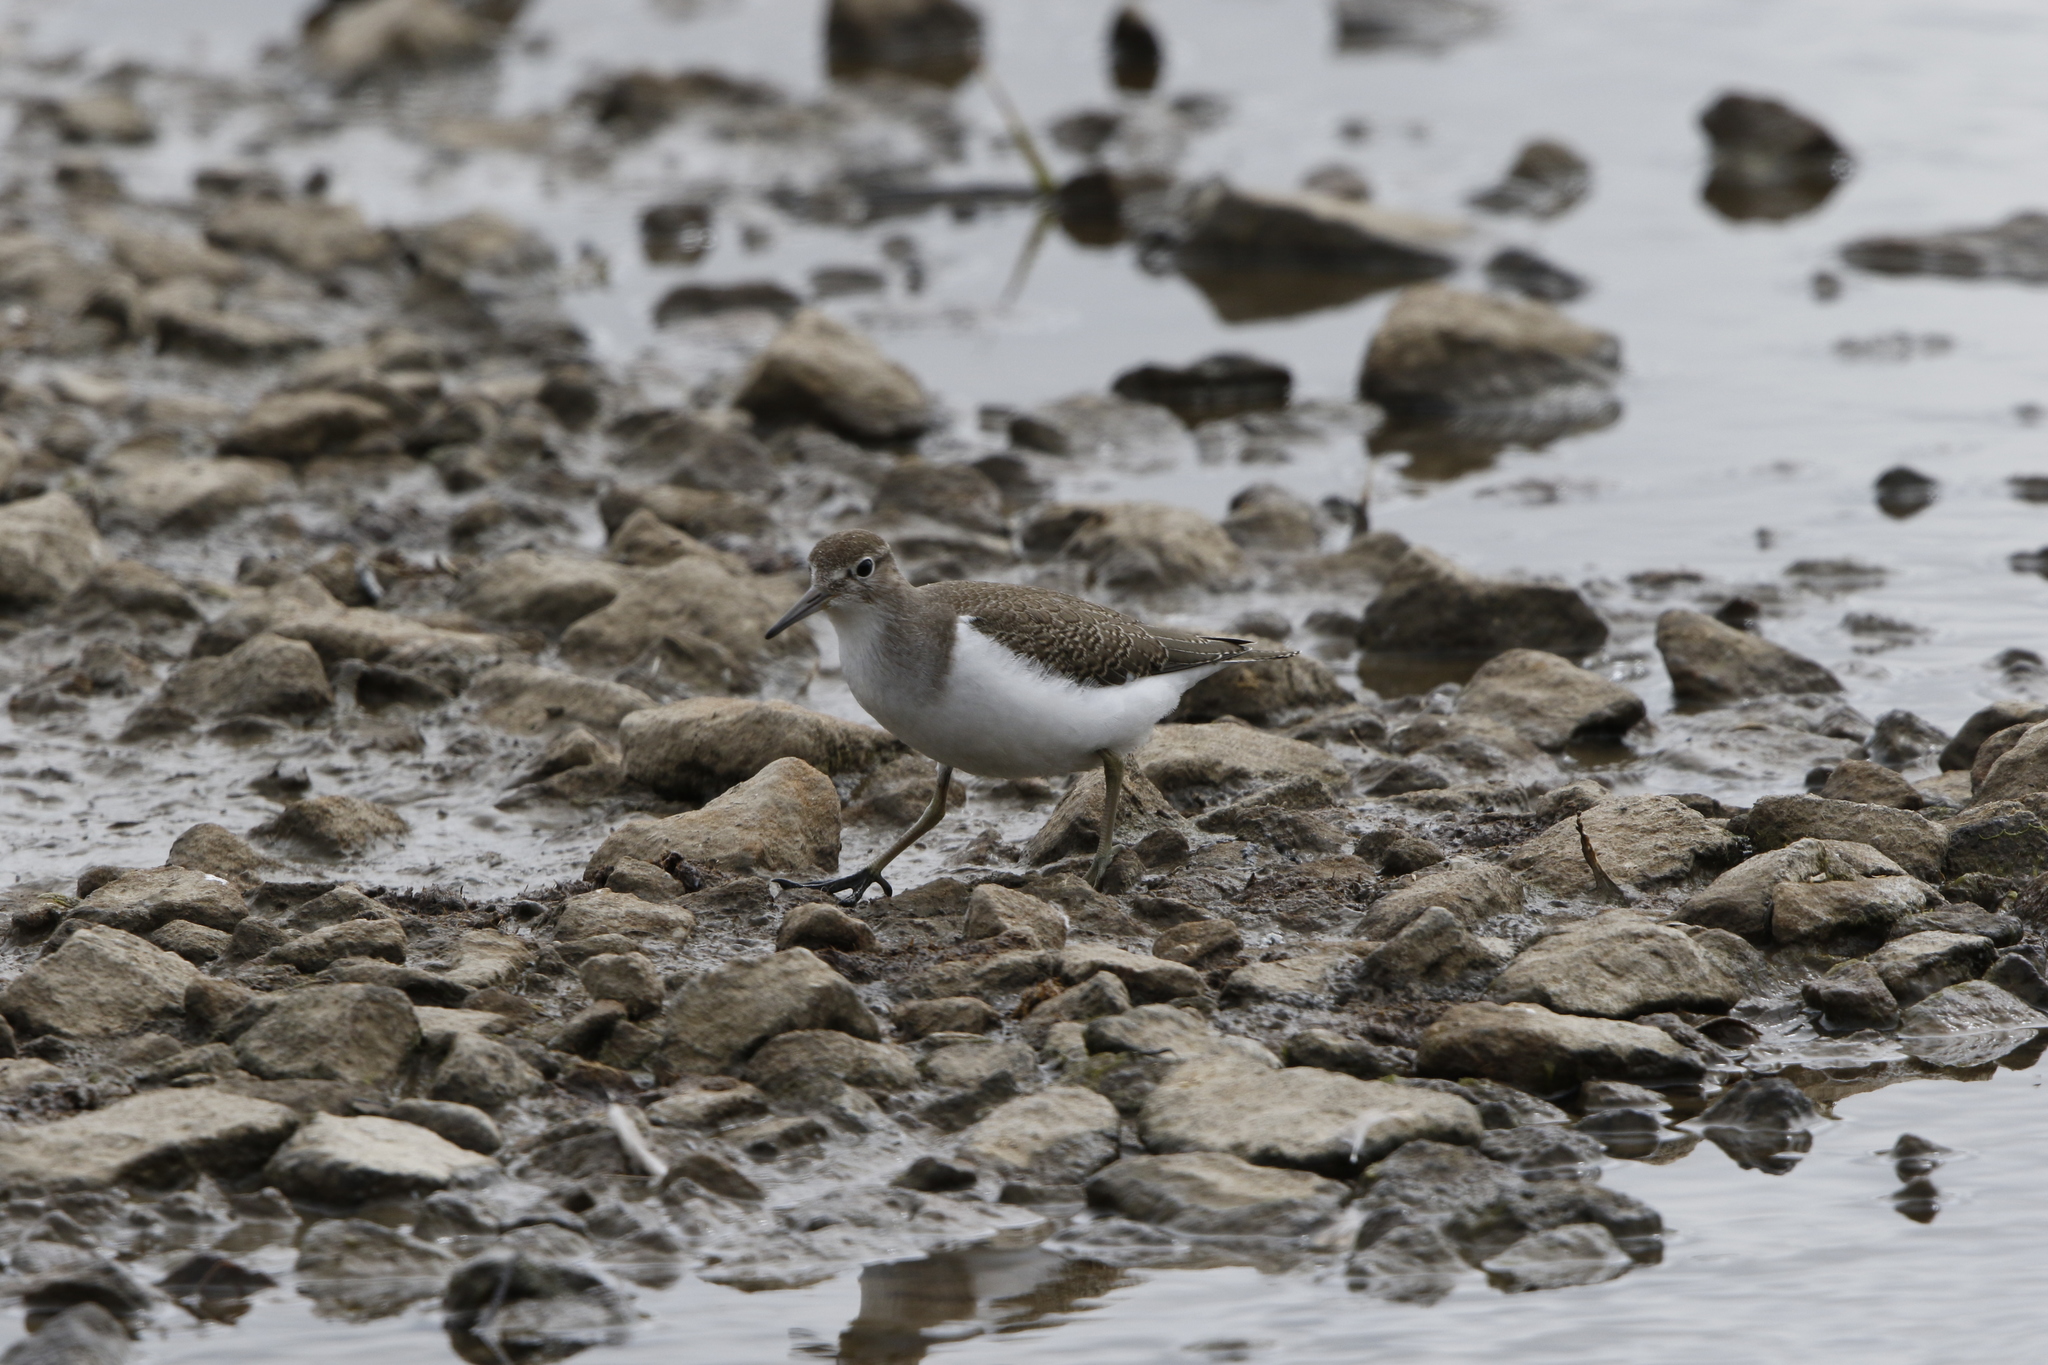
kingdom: Animalia
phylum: Chordata
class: Aves
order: Charadriiformes
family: Scolopacidae
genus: Actitis
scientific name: Actitis hypoleucos
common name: Common sandpiper
